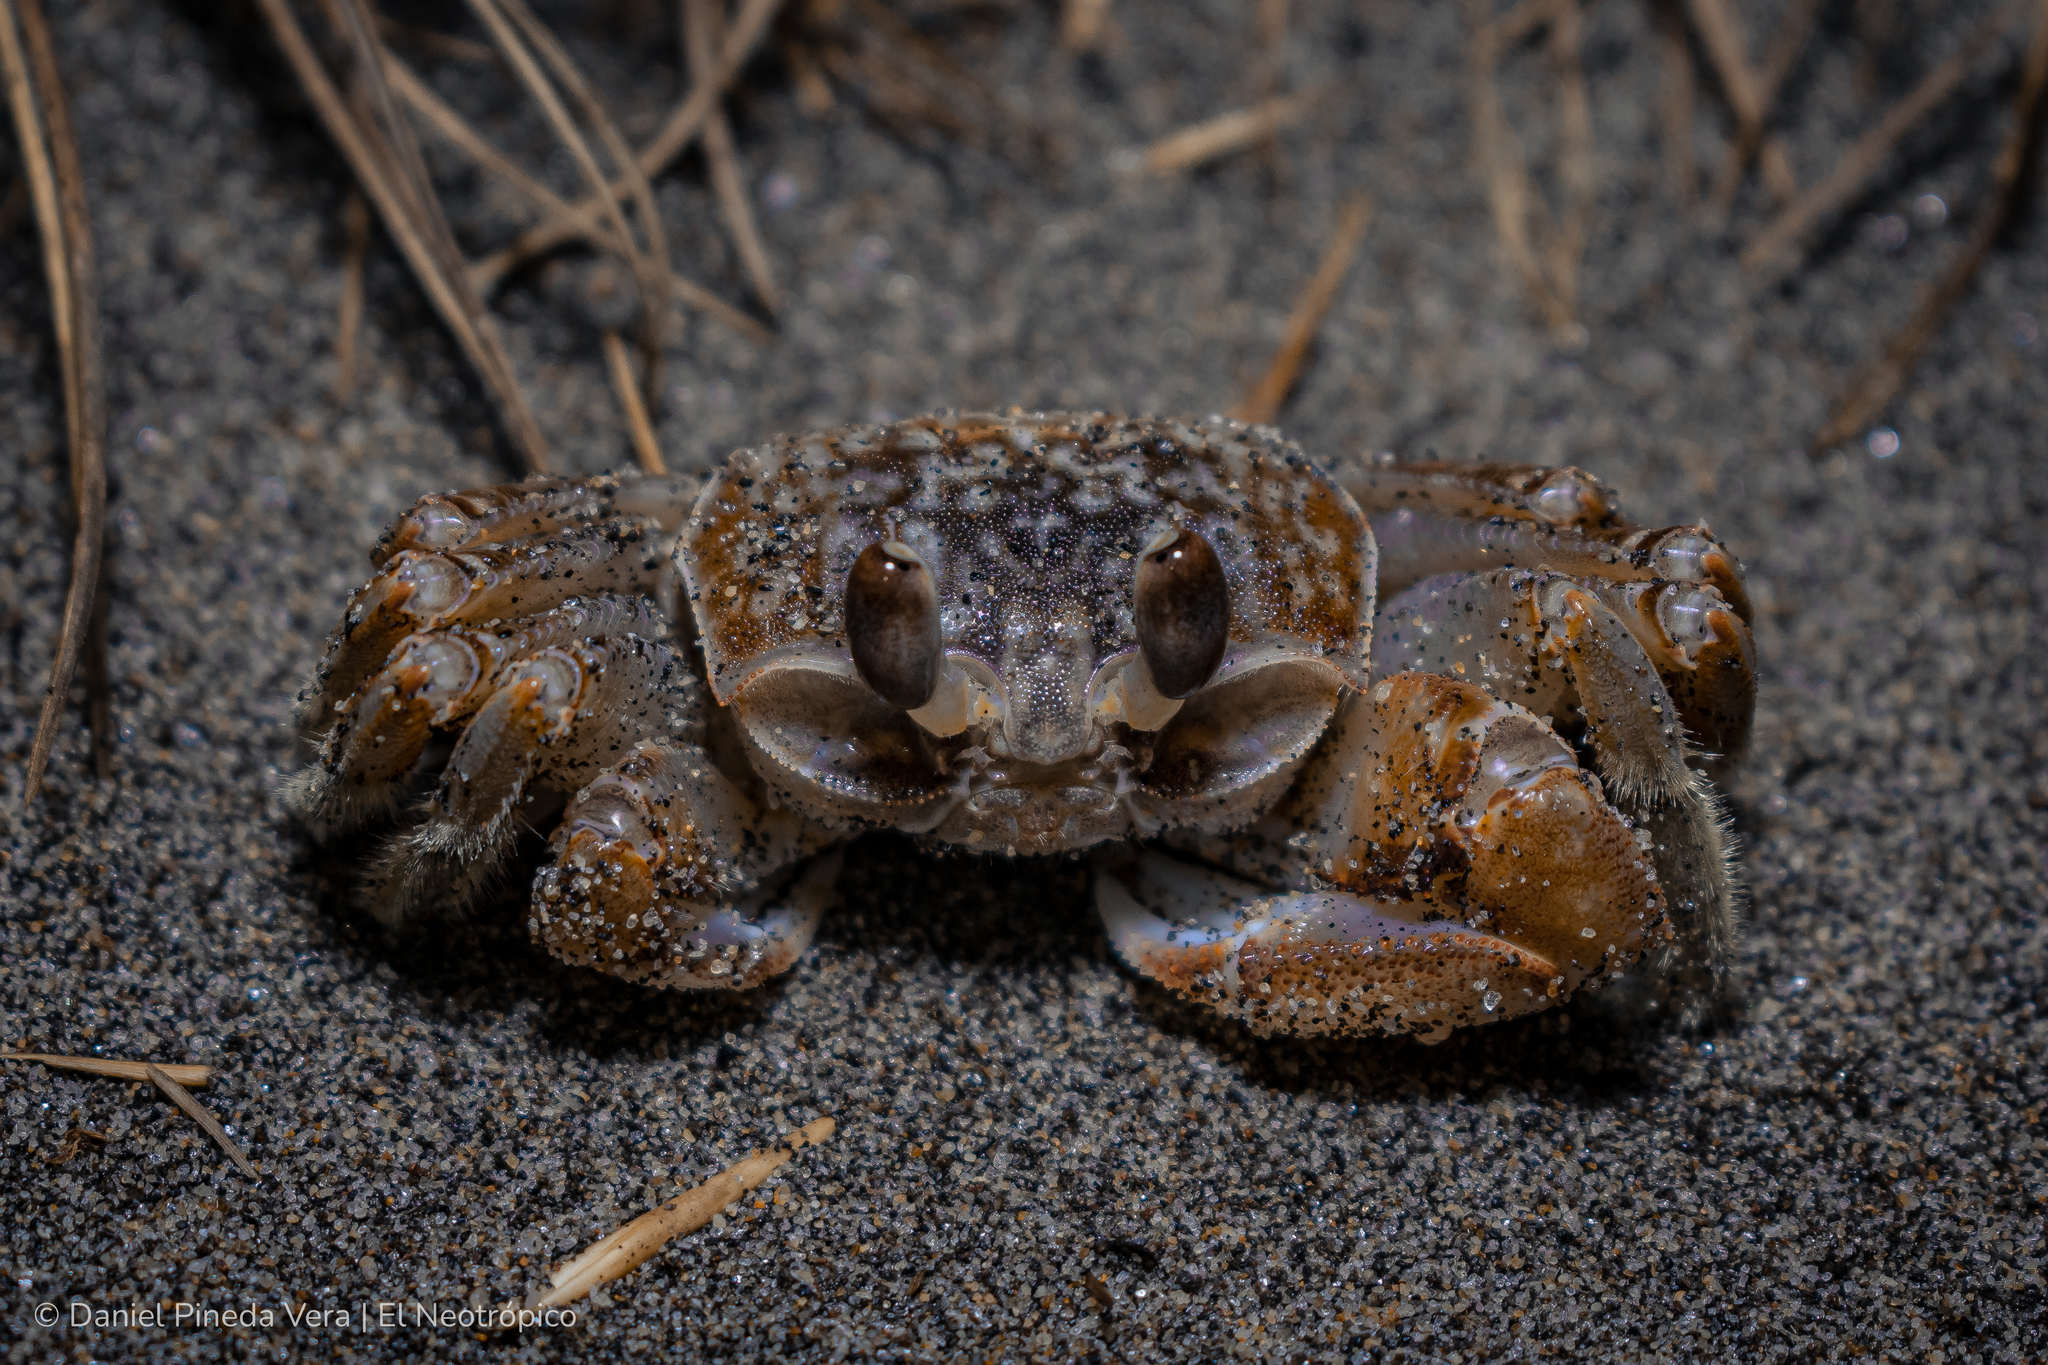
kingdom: Animalia
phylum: Arthropoda
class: Malacostraca
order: Decapoda
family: Ocypodidae
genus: Ocypode
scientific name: Ocypode occidentalis
